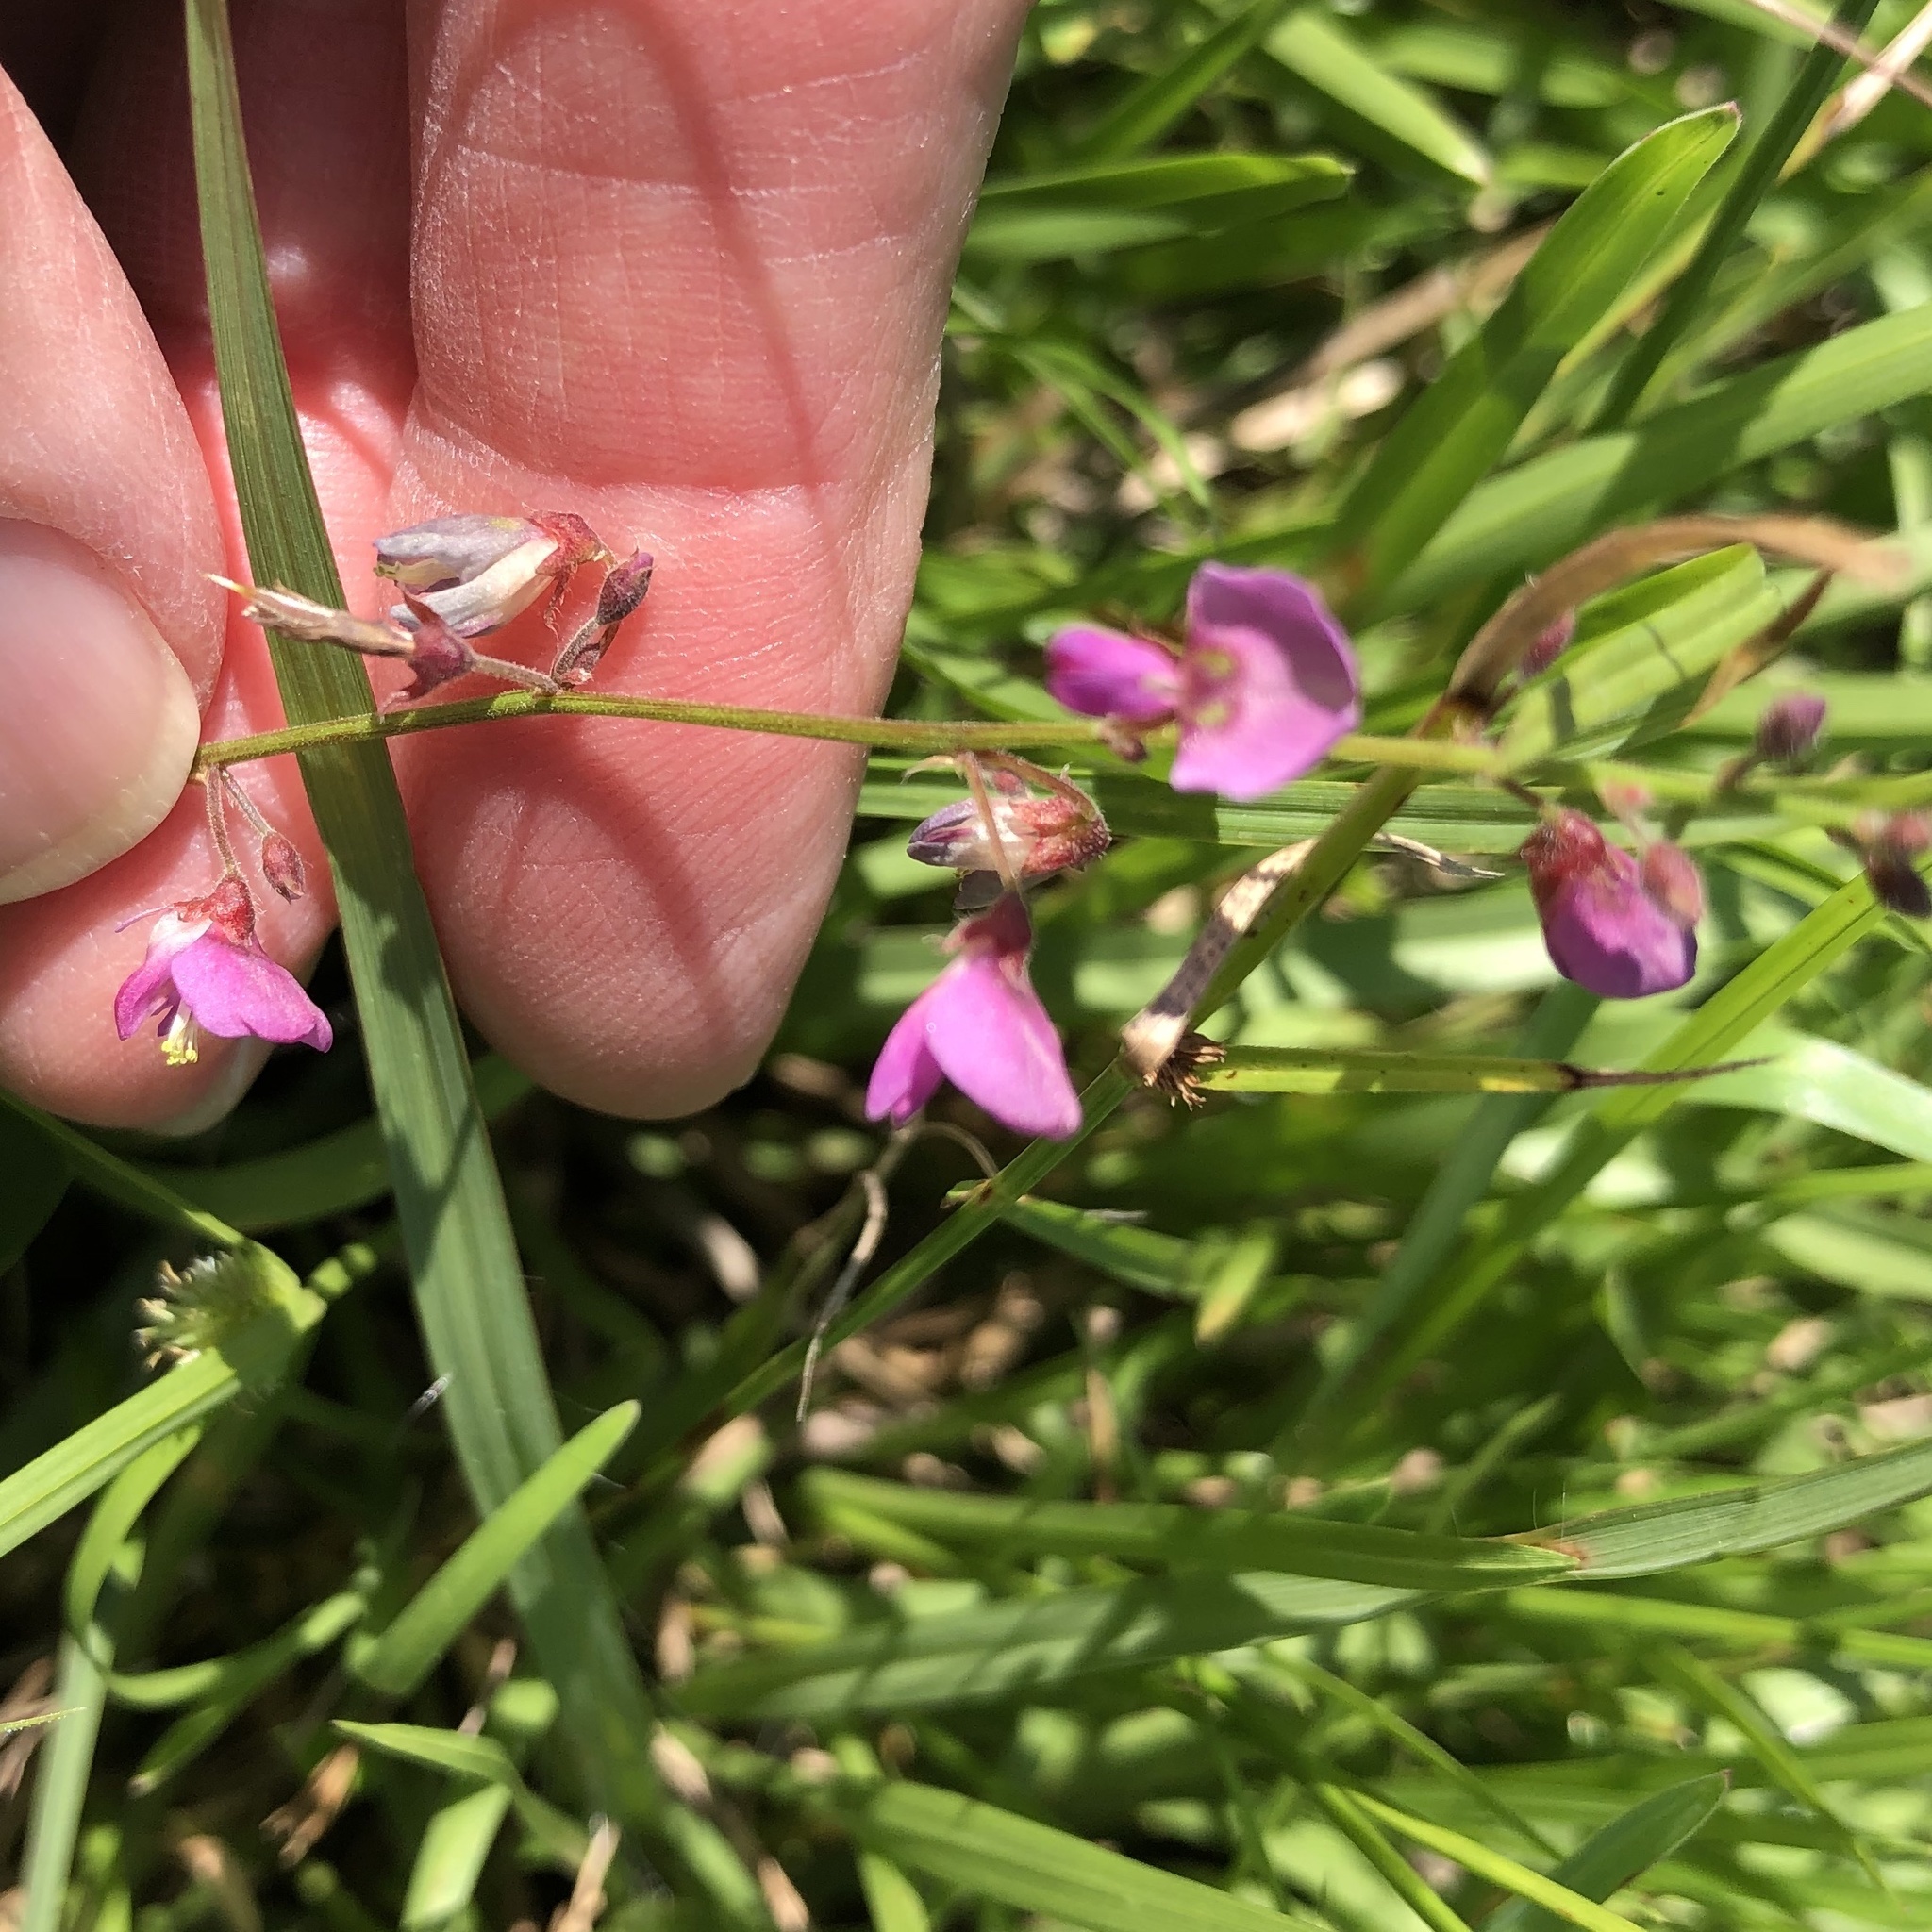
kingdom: Plantae
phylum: Tracheophyta
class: Magnoliopsida
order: Fabales
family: Fabaceae
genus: Desmodium
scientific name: Desmodium paniculatum
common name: Panicled tick-clover
